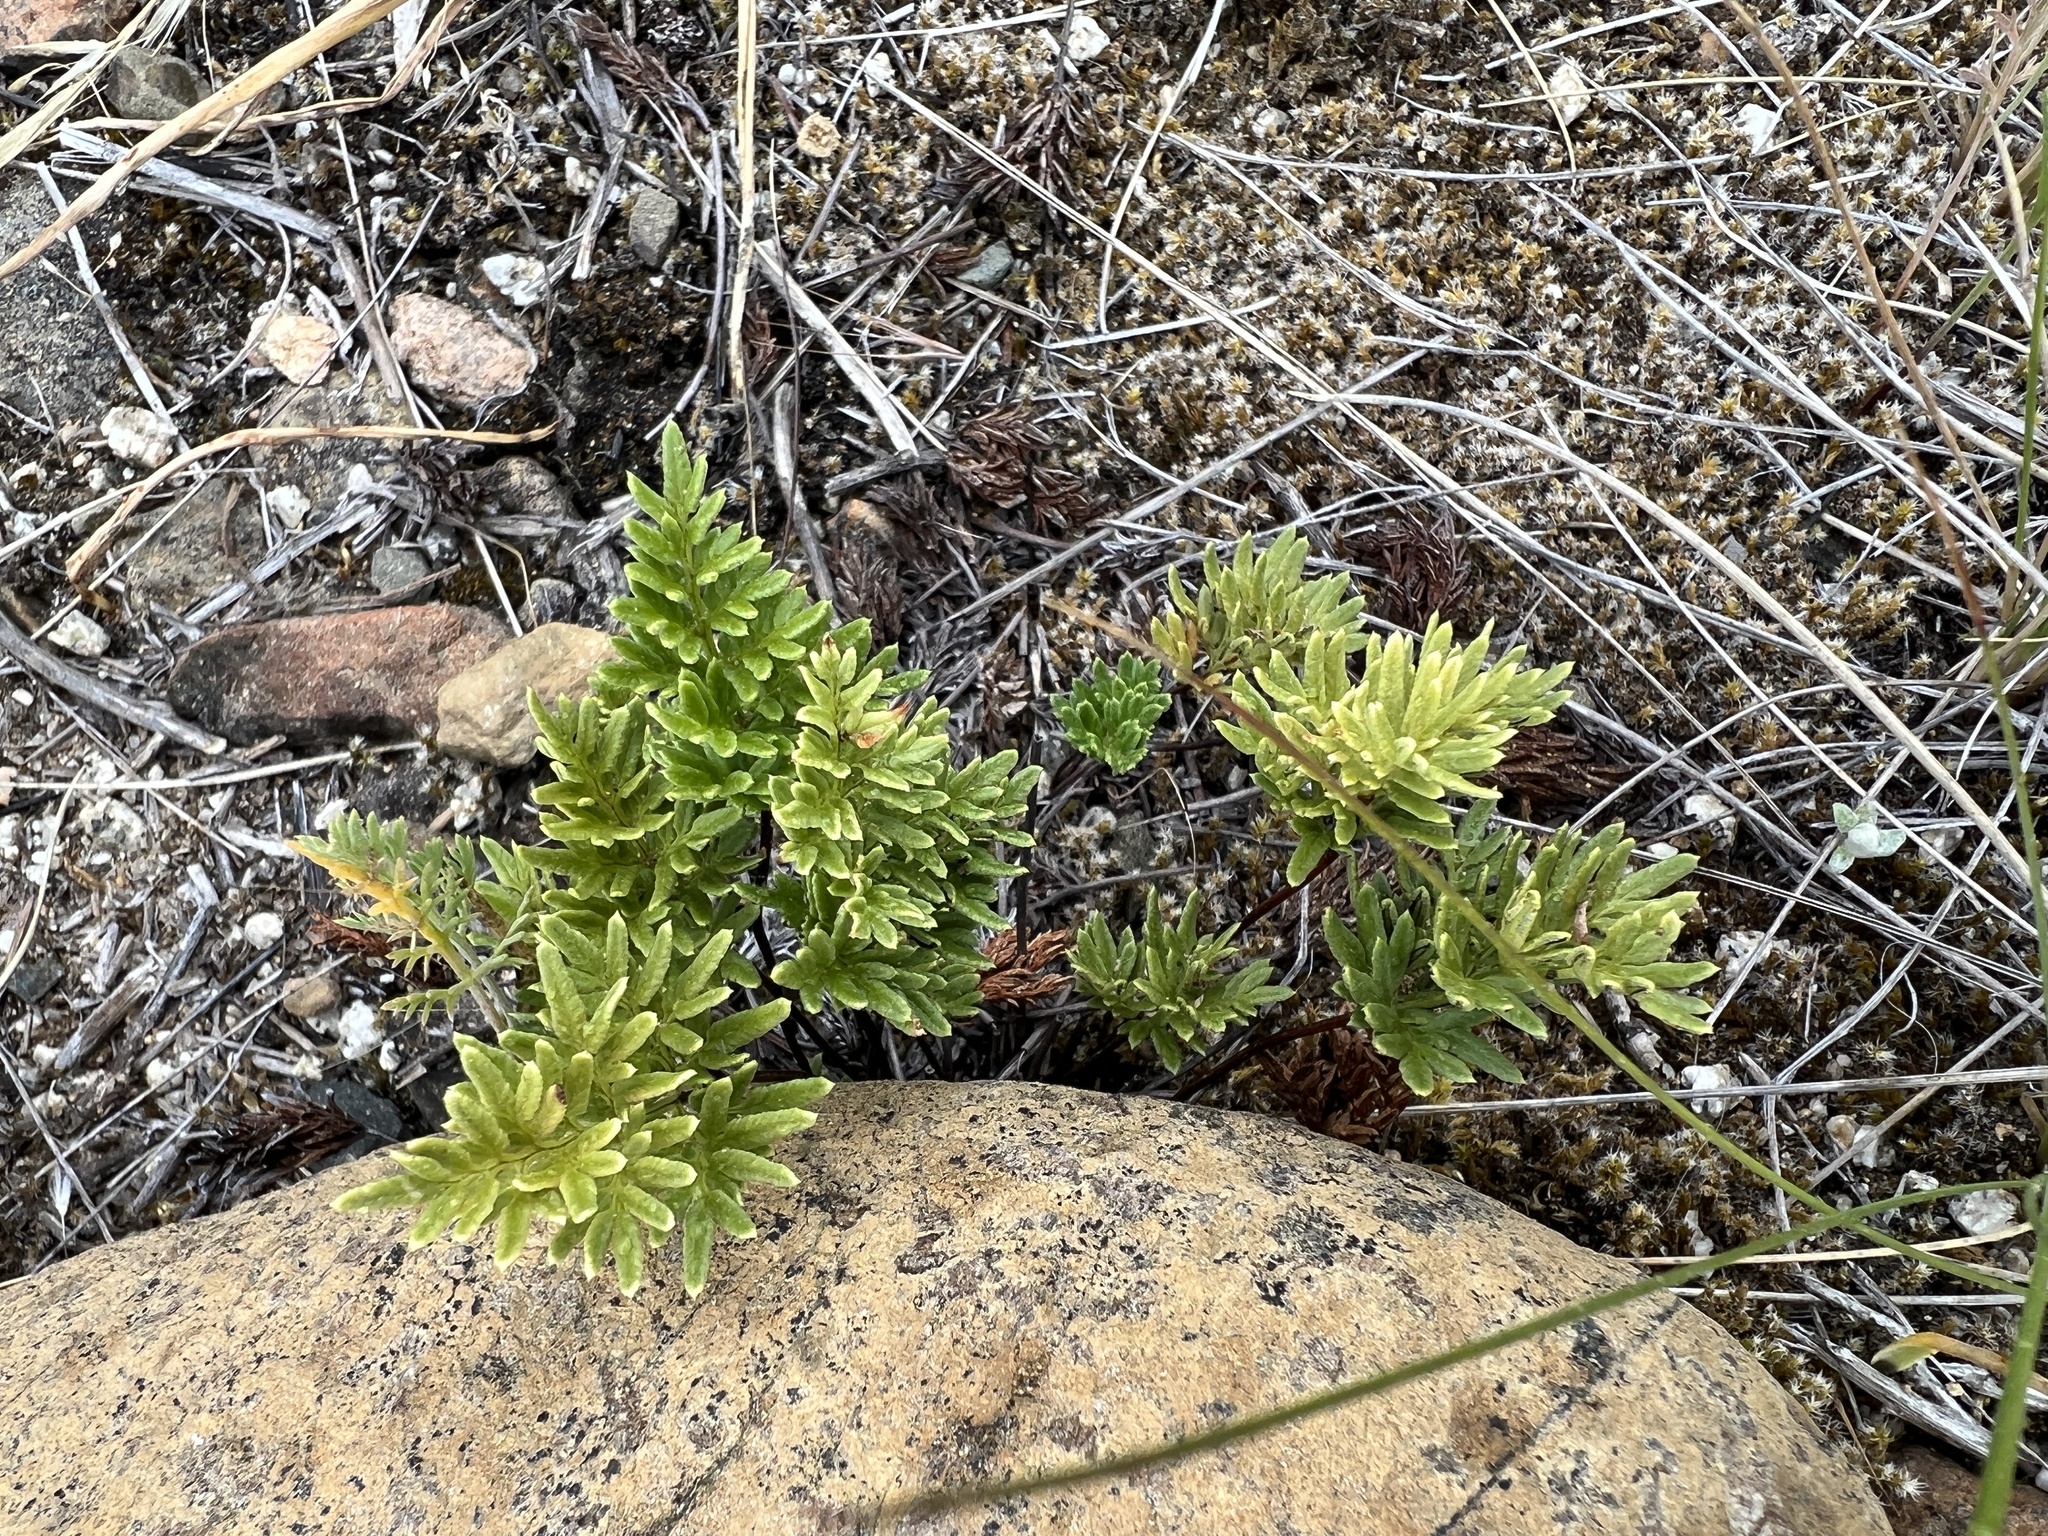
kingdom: Plantae
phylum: Tracheophyta
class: Polypodiopsida
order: Polypodiales
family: Pteridaceae
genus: Aspidotis
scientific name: Aspidotis densa
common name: Indian's dream
